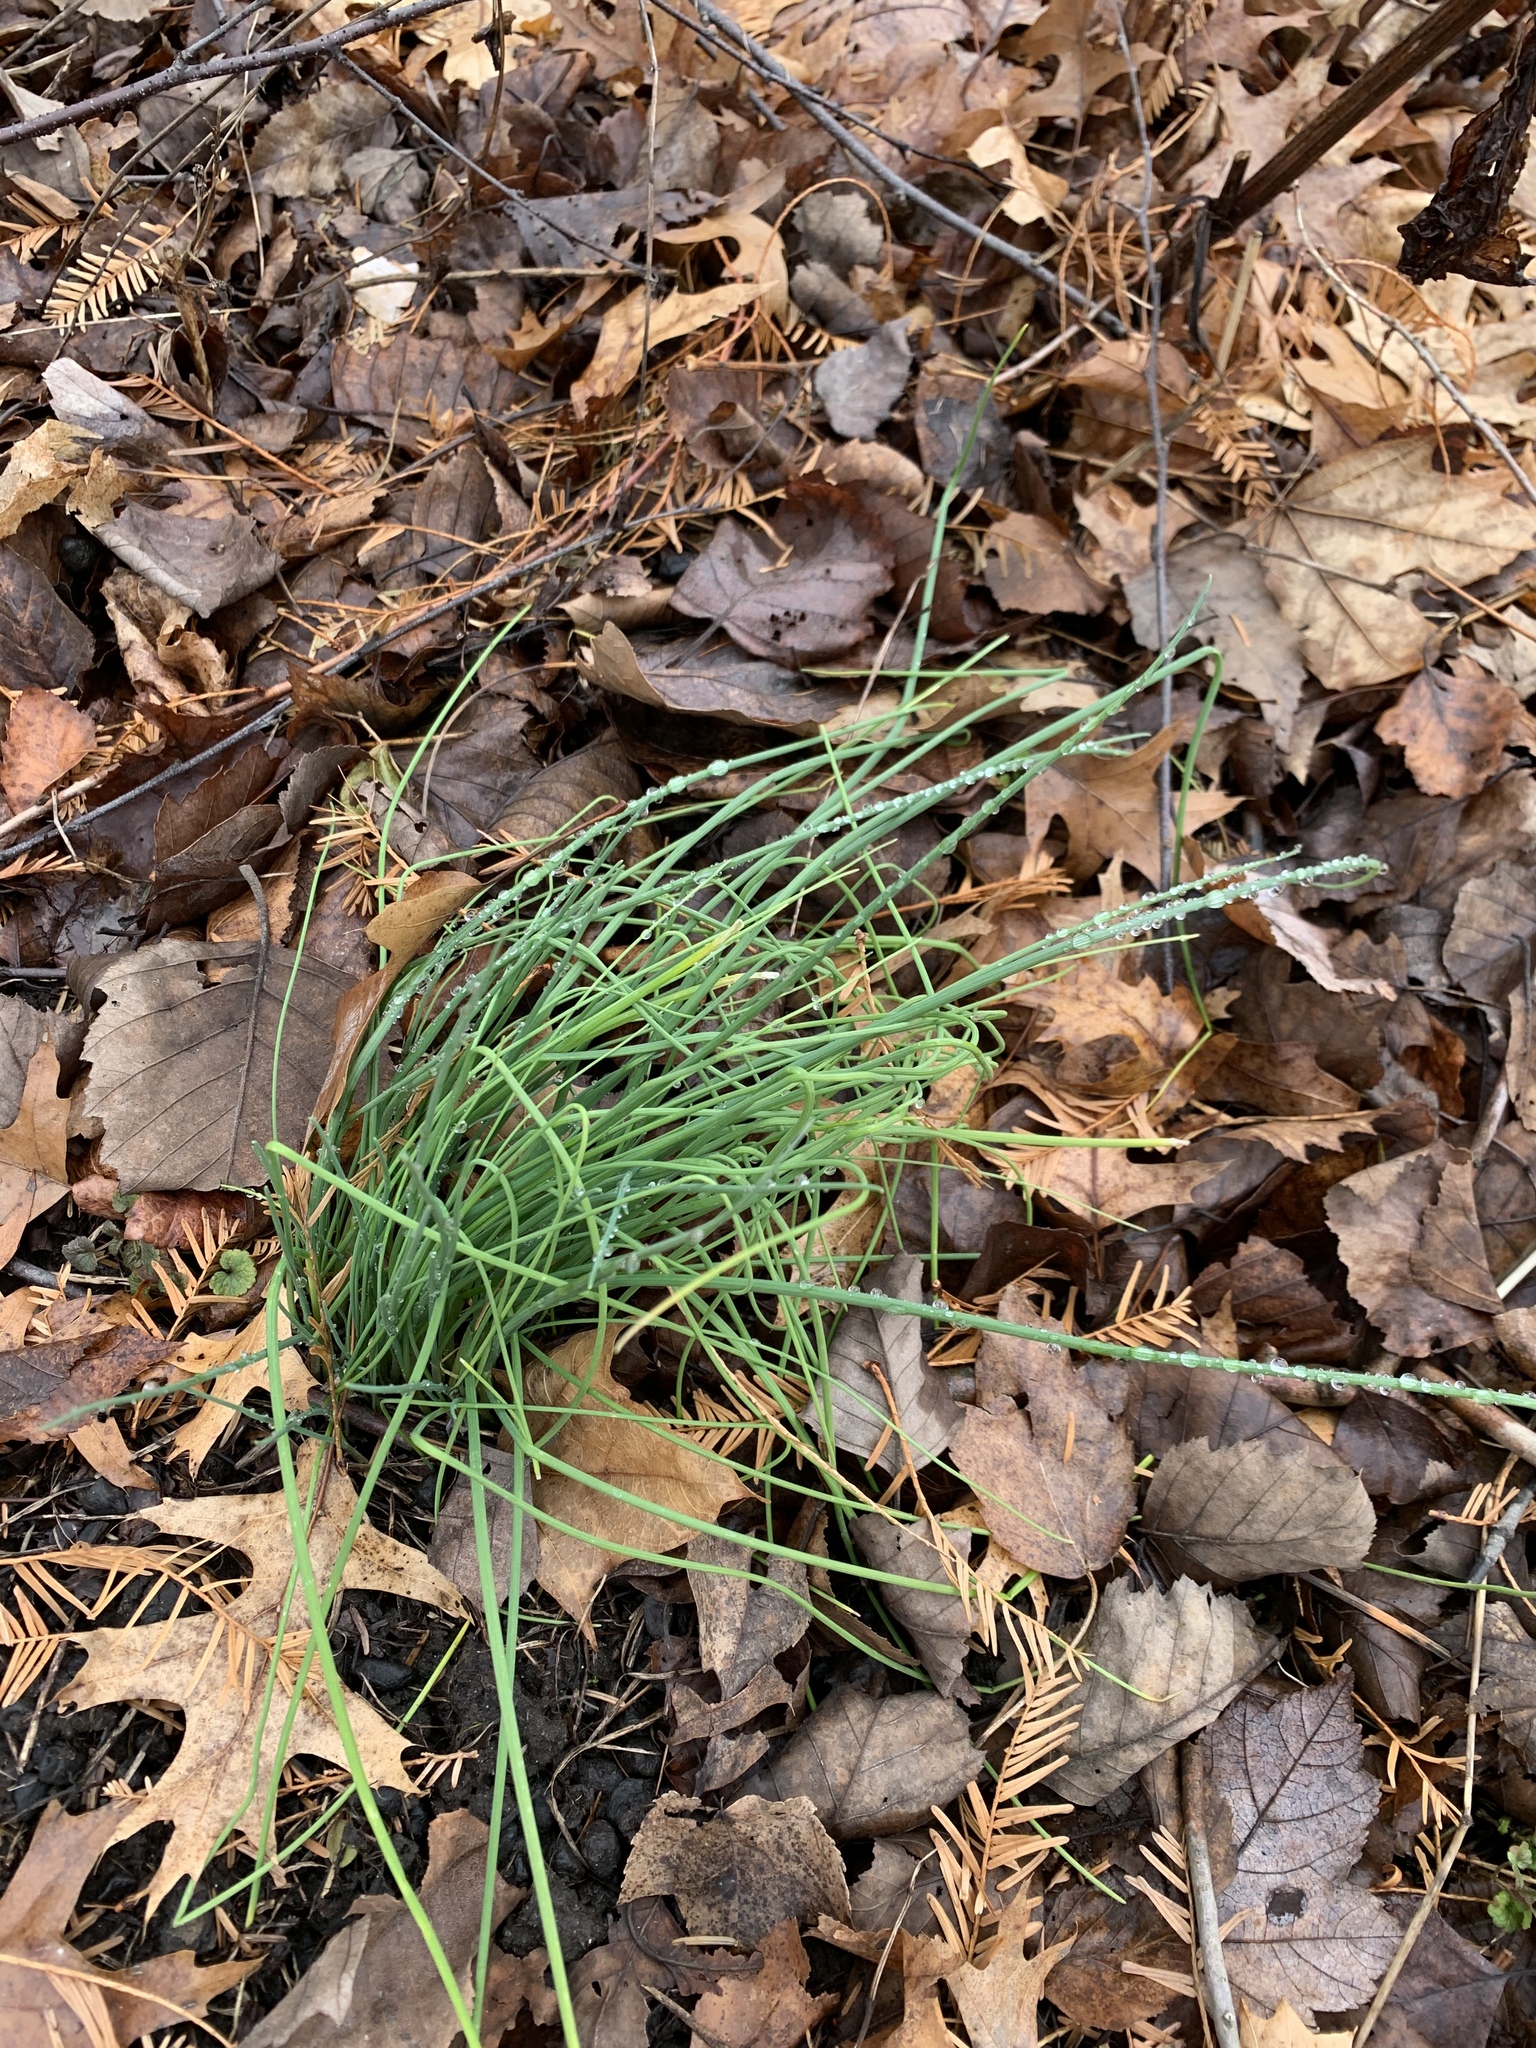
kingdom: Plantae
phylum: Tracheophyta
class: Liliopsida
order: Asparagales
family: Amaryllidaceae
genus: Allium
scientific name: Allium vineale
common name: Crow garlic
